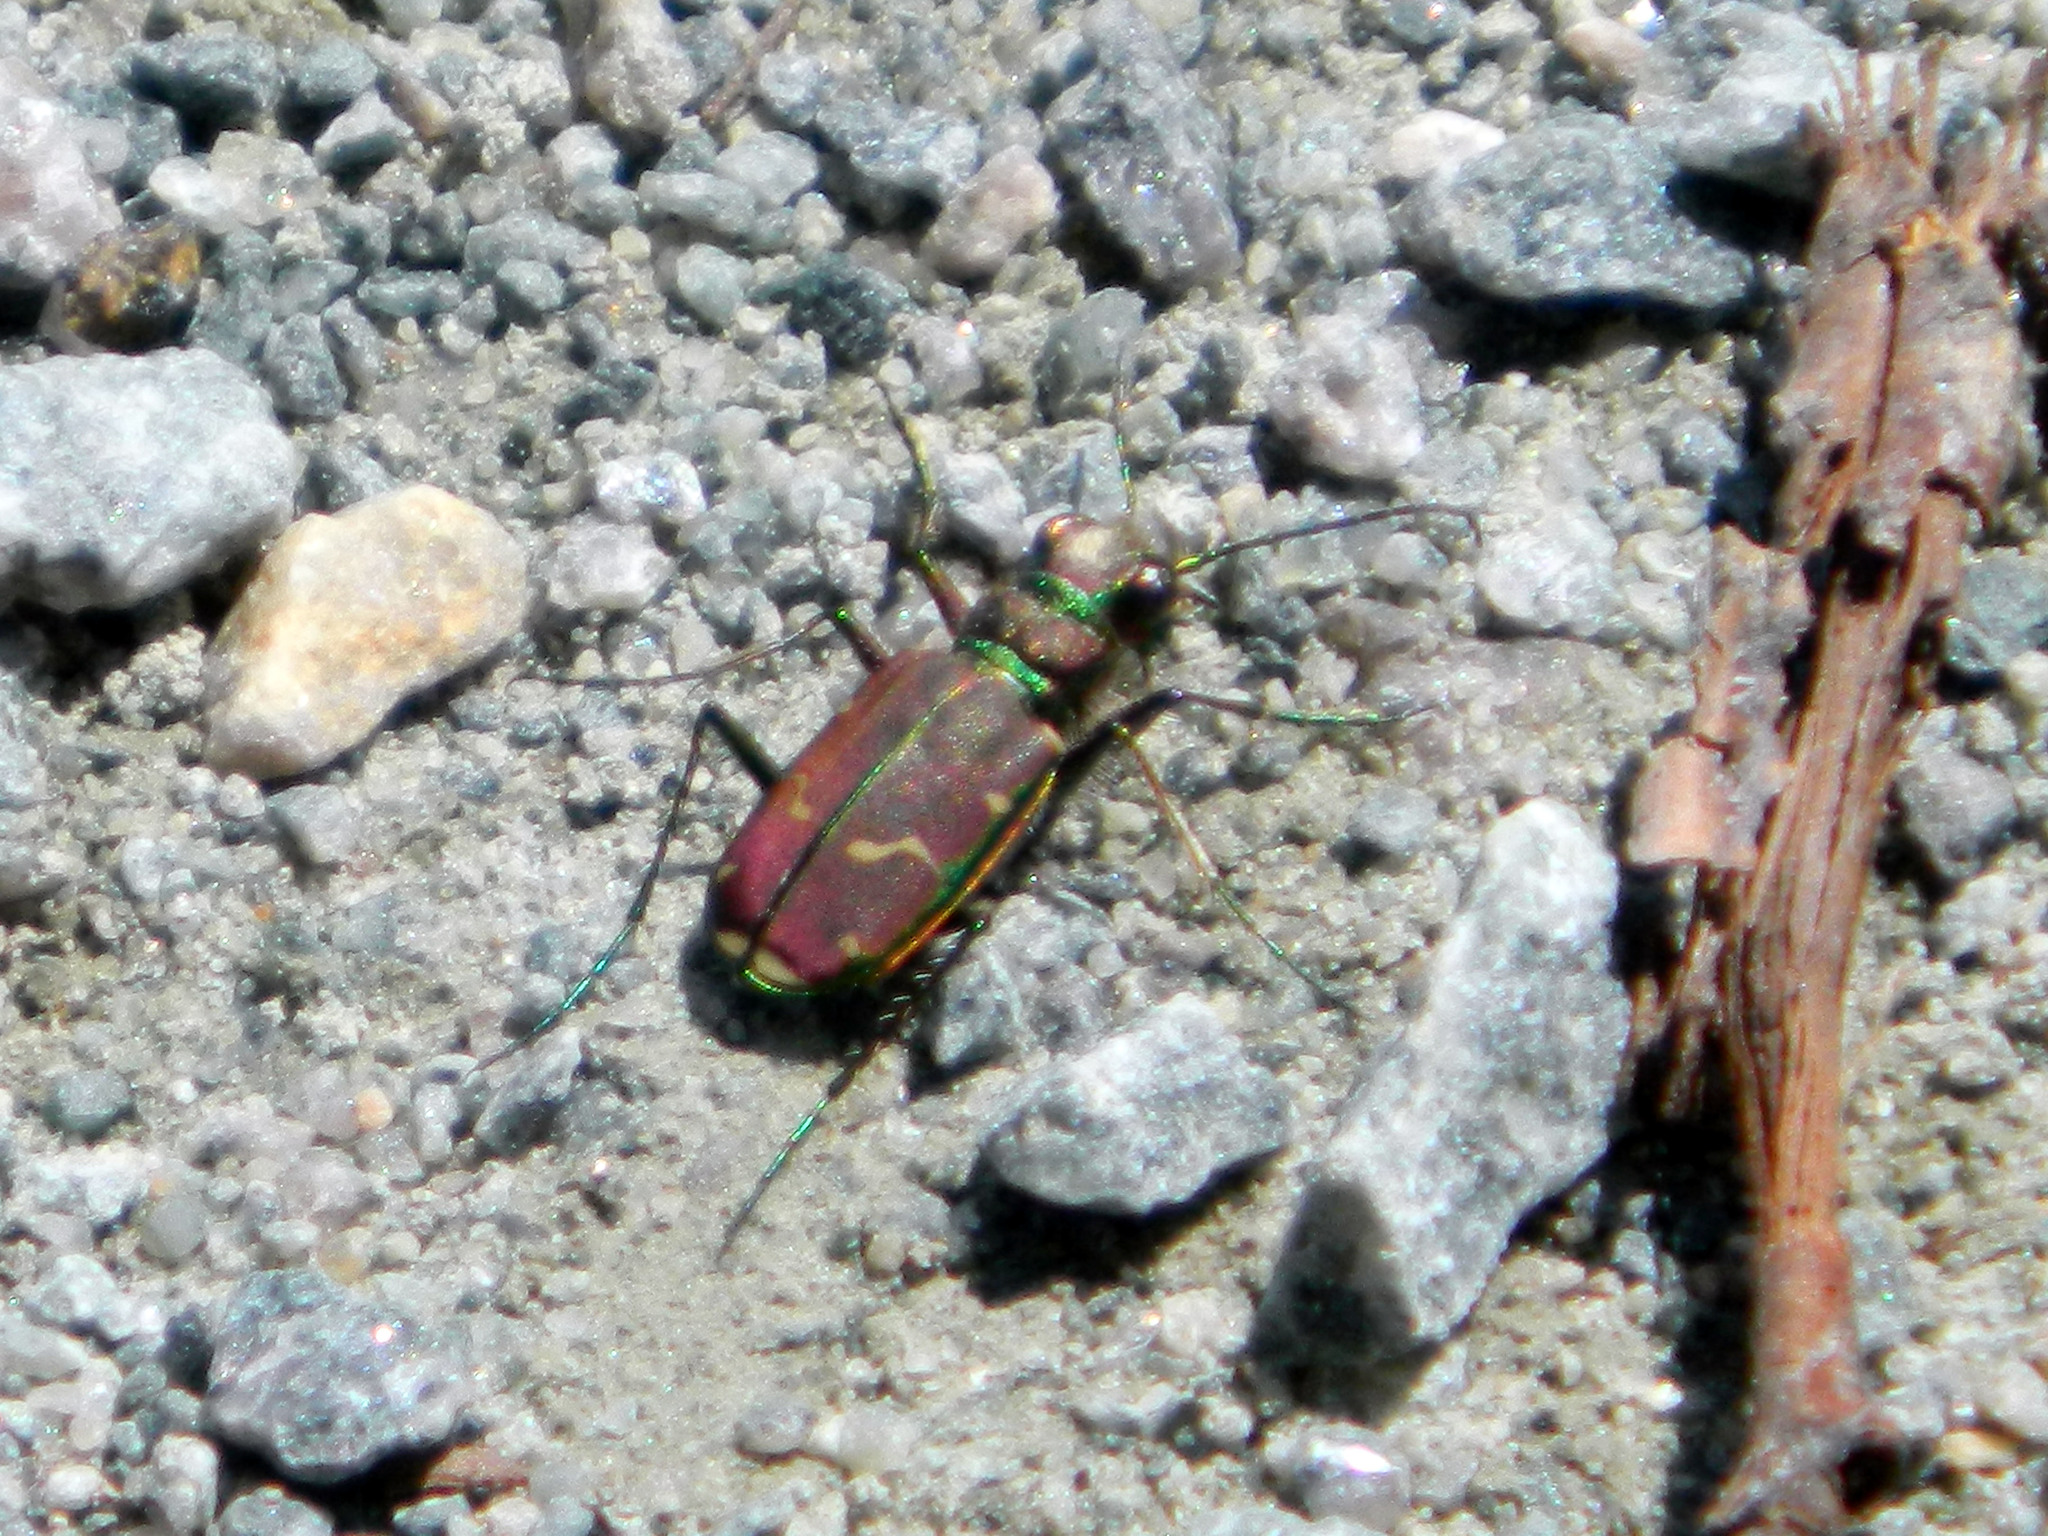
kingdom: Animalia
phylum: Arthropoda
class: Insecta
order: Coleoptera
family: Carabidae
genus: Cicindela
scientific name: Cicindela limbalis
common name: Common claybank tiger beetle
